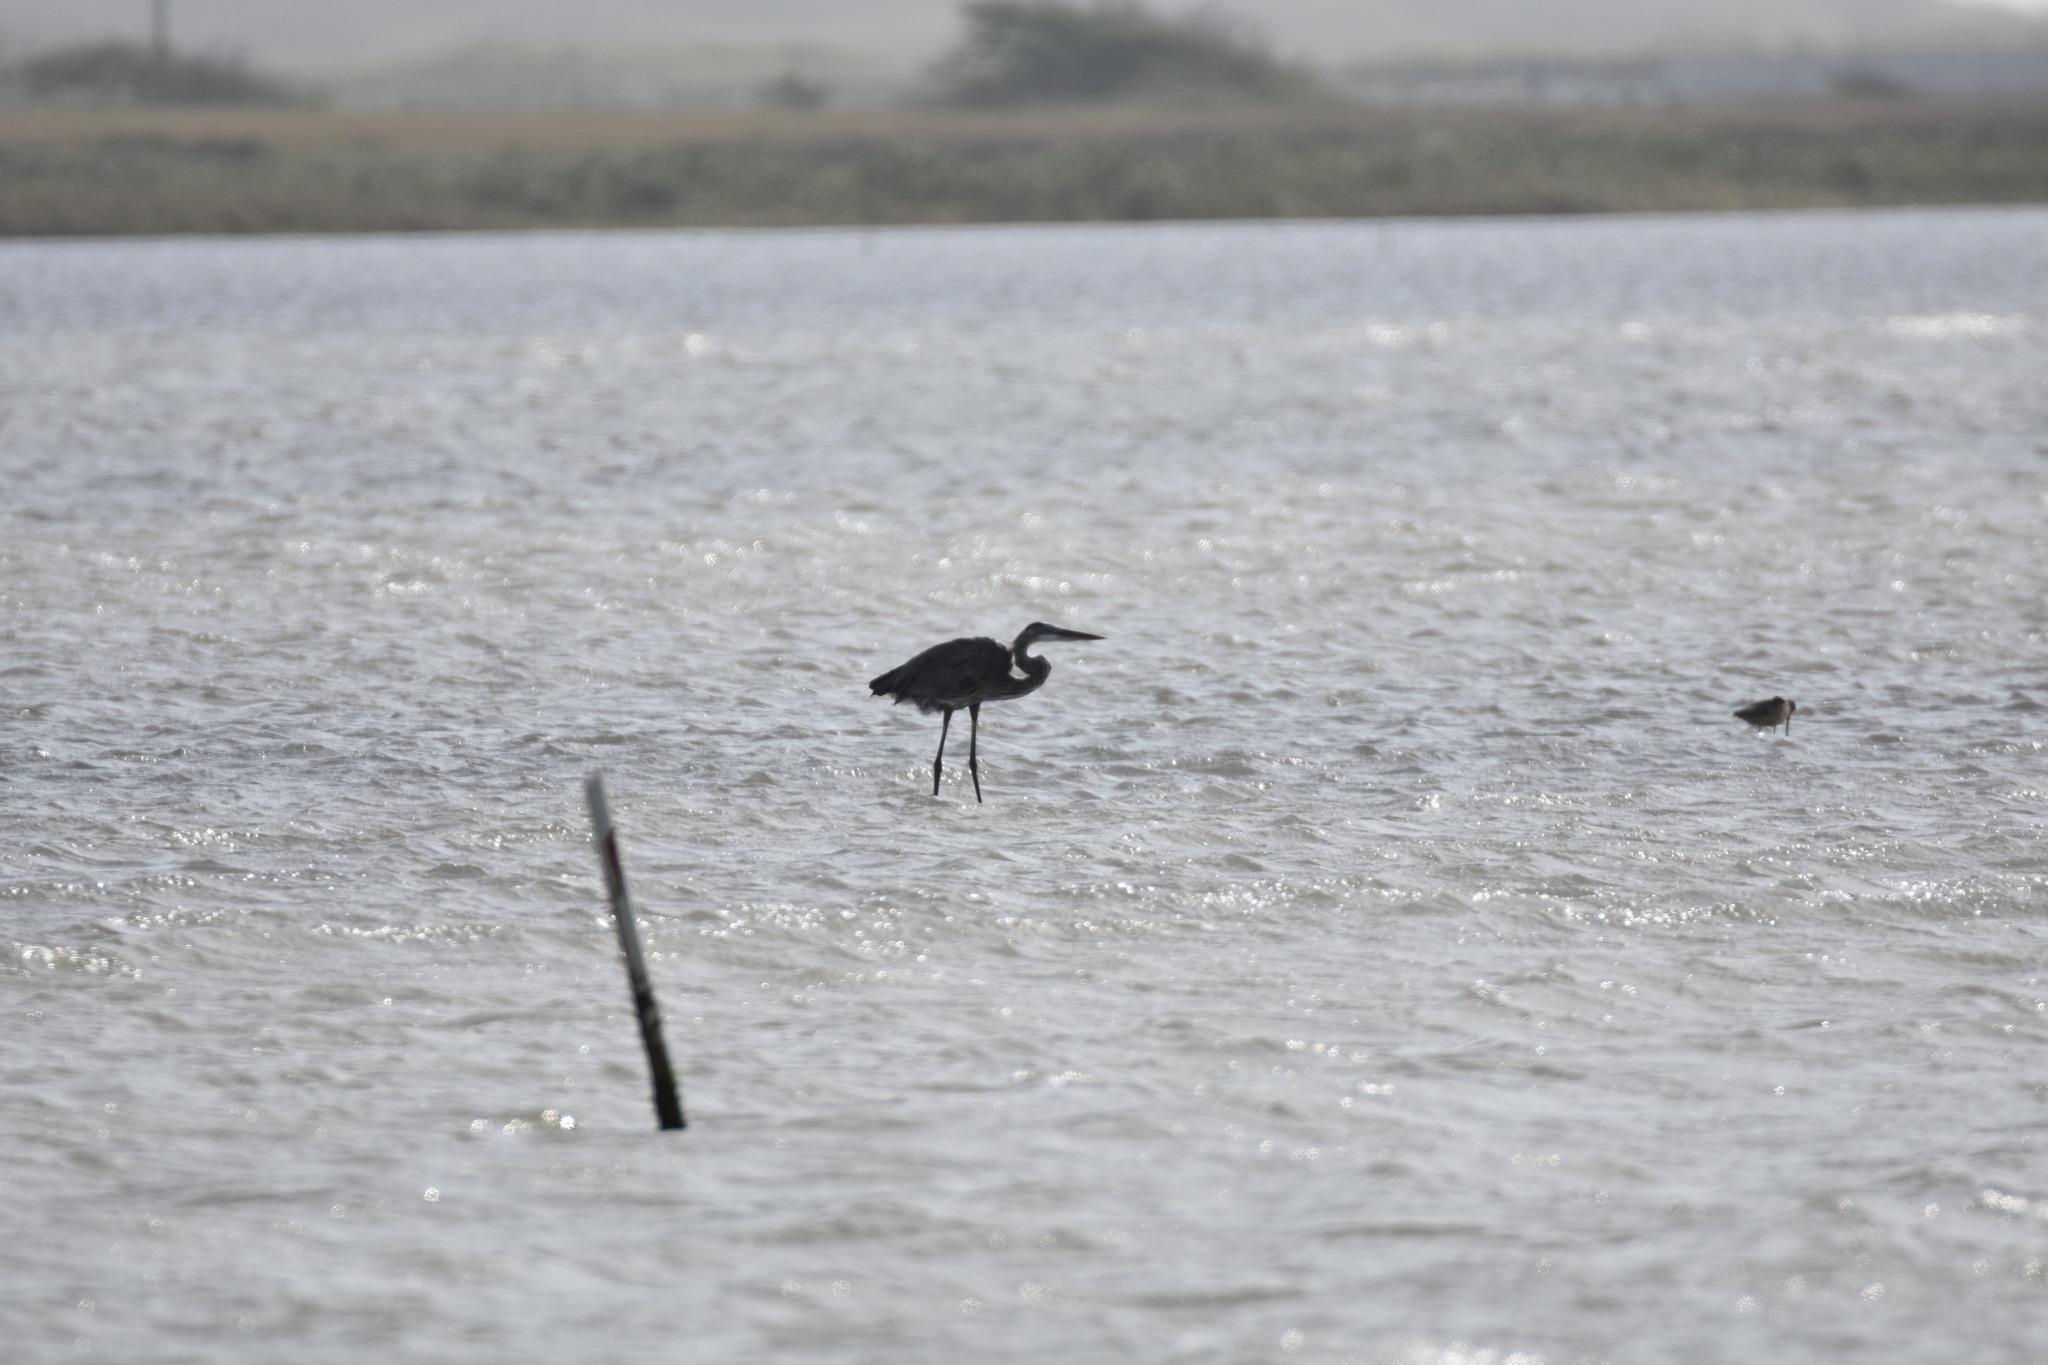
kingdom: Animalia
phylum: Chordata
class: Aves
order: Pelecaniformes
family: Ardeidae
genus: Ardea
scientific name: Ardea herodias
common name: Great blue heron
